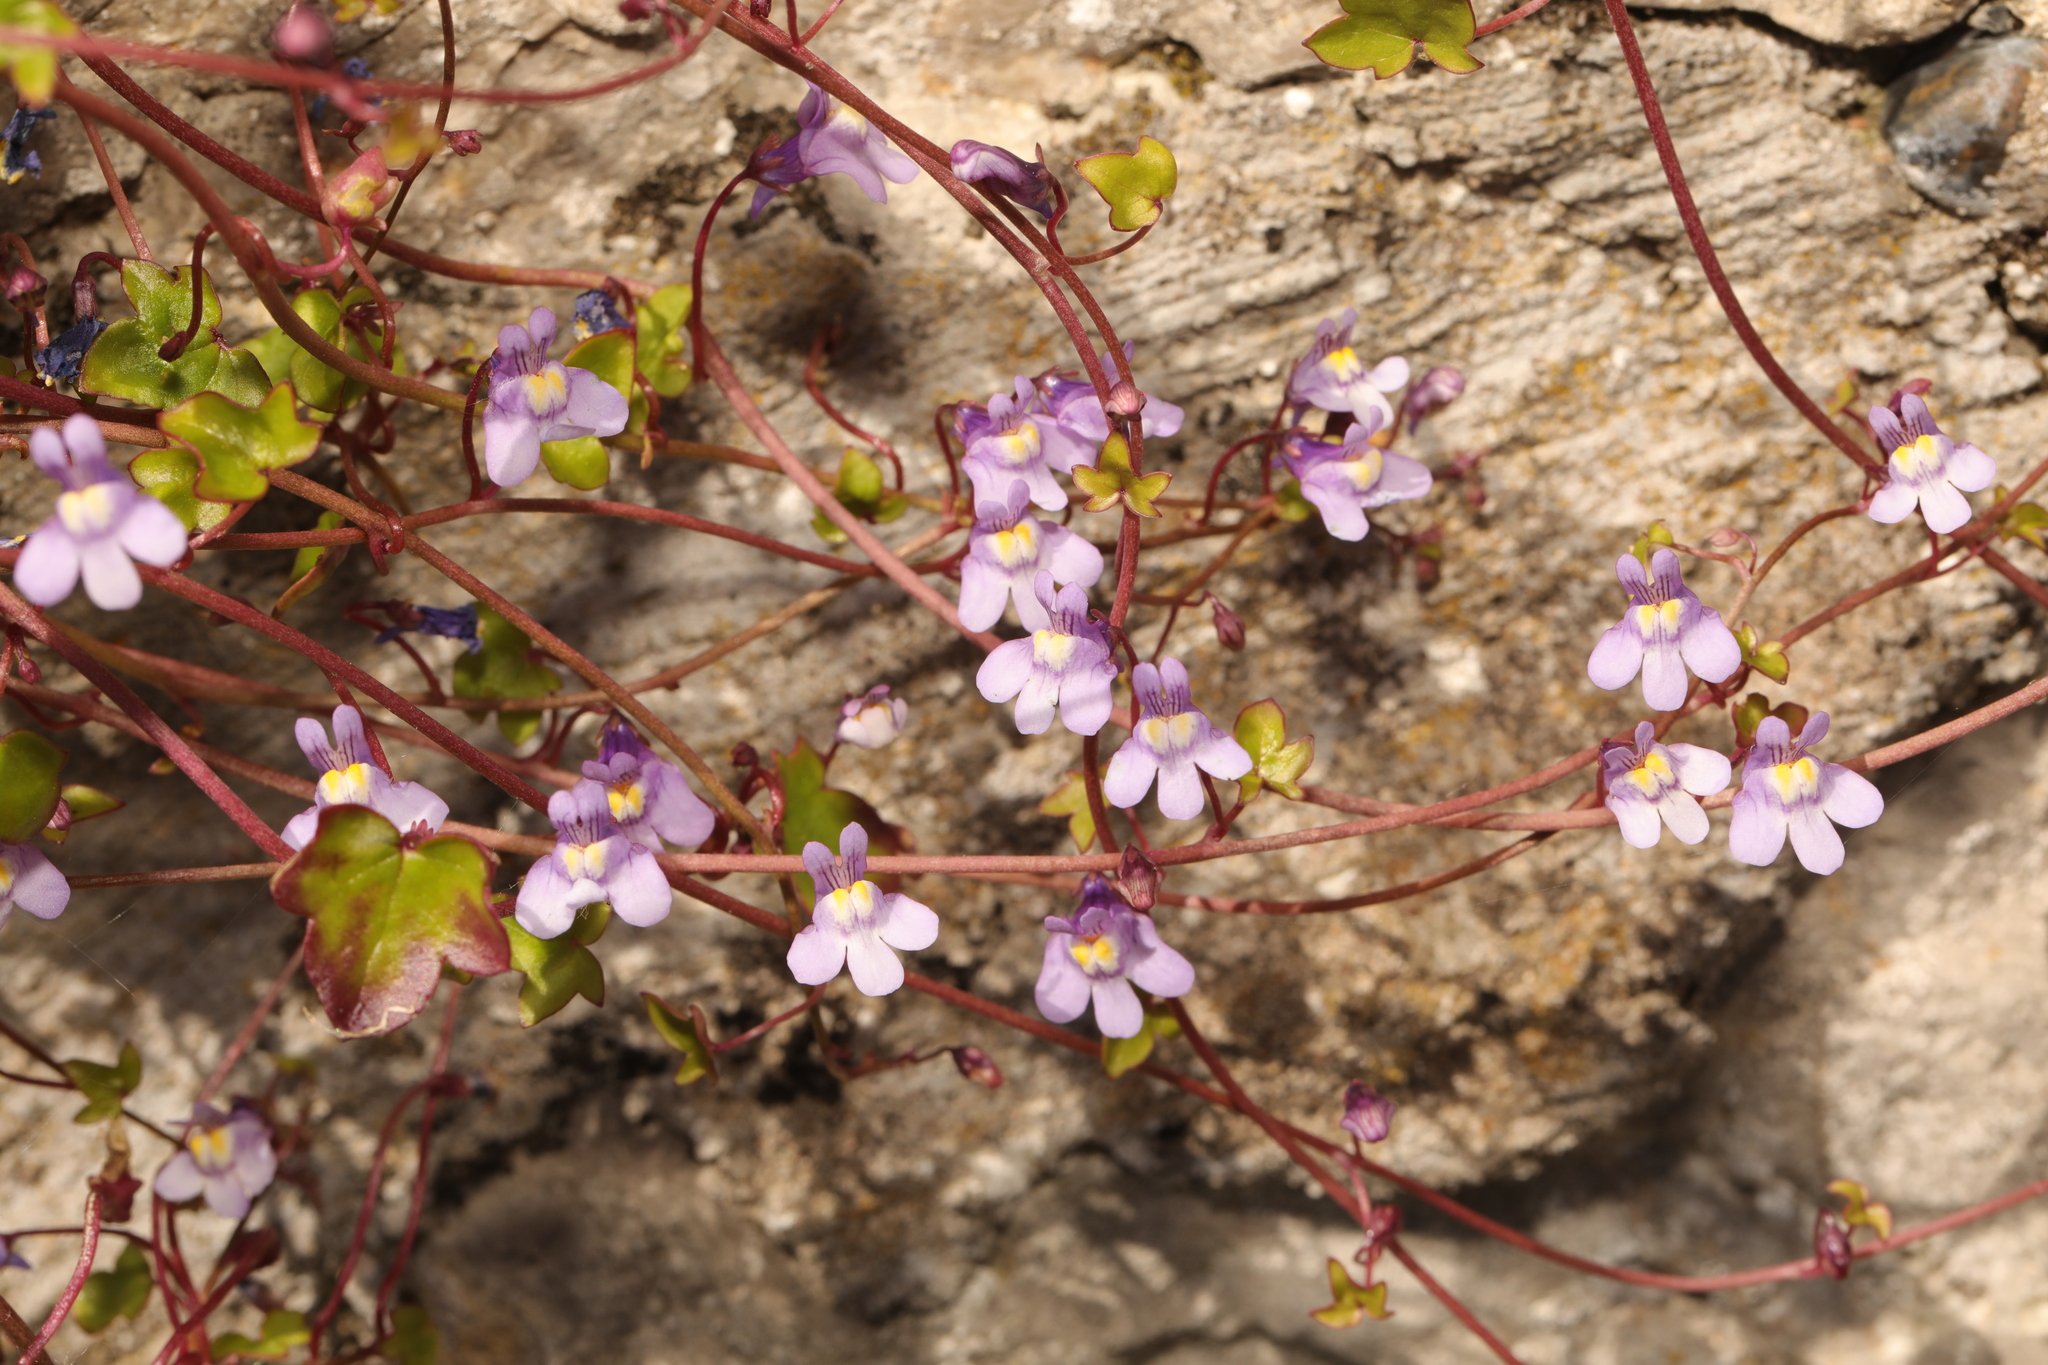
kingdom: Plantae
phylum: Tracheophyta
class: Magnoliopsida
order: Lamiales
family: Plantaginaceae
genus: Cymbalaria
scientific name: Cymbalaria muralis
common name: Ivy-leaved toadflax
